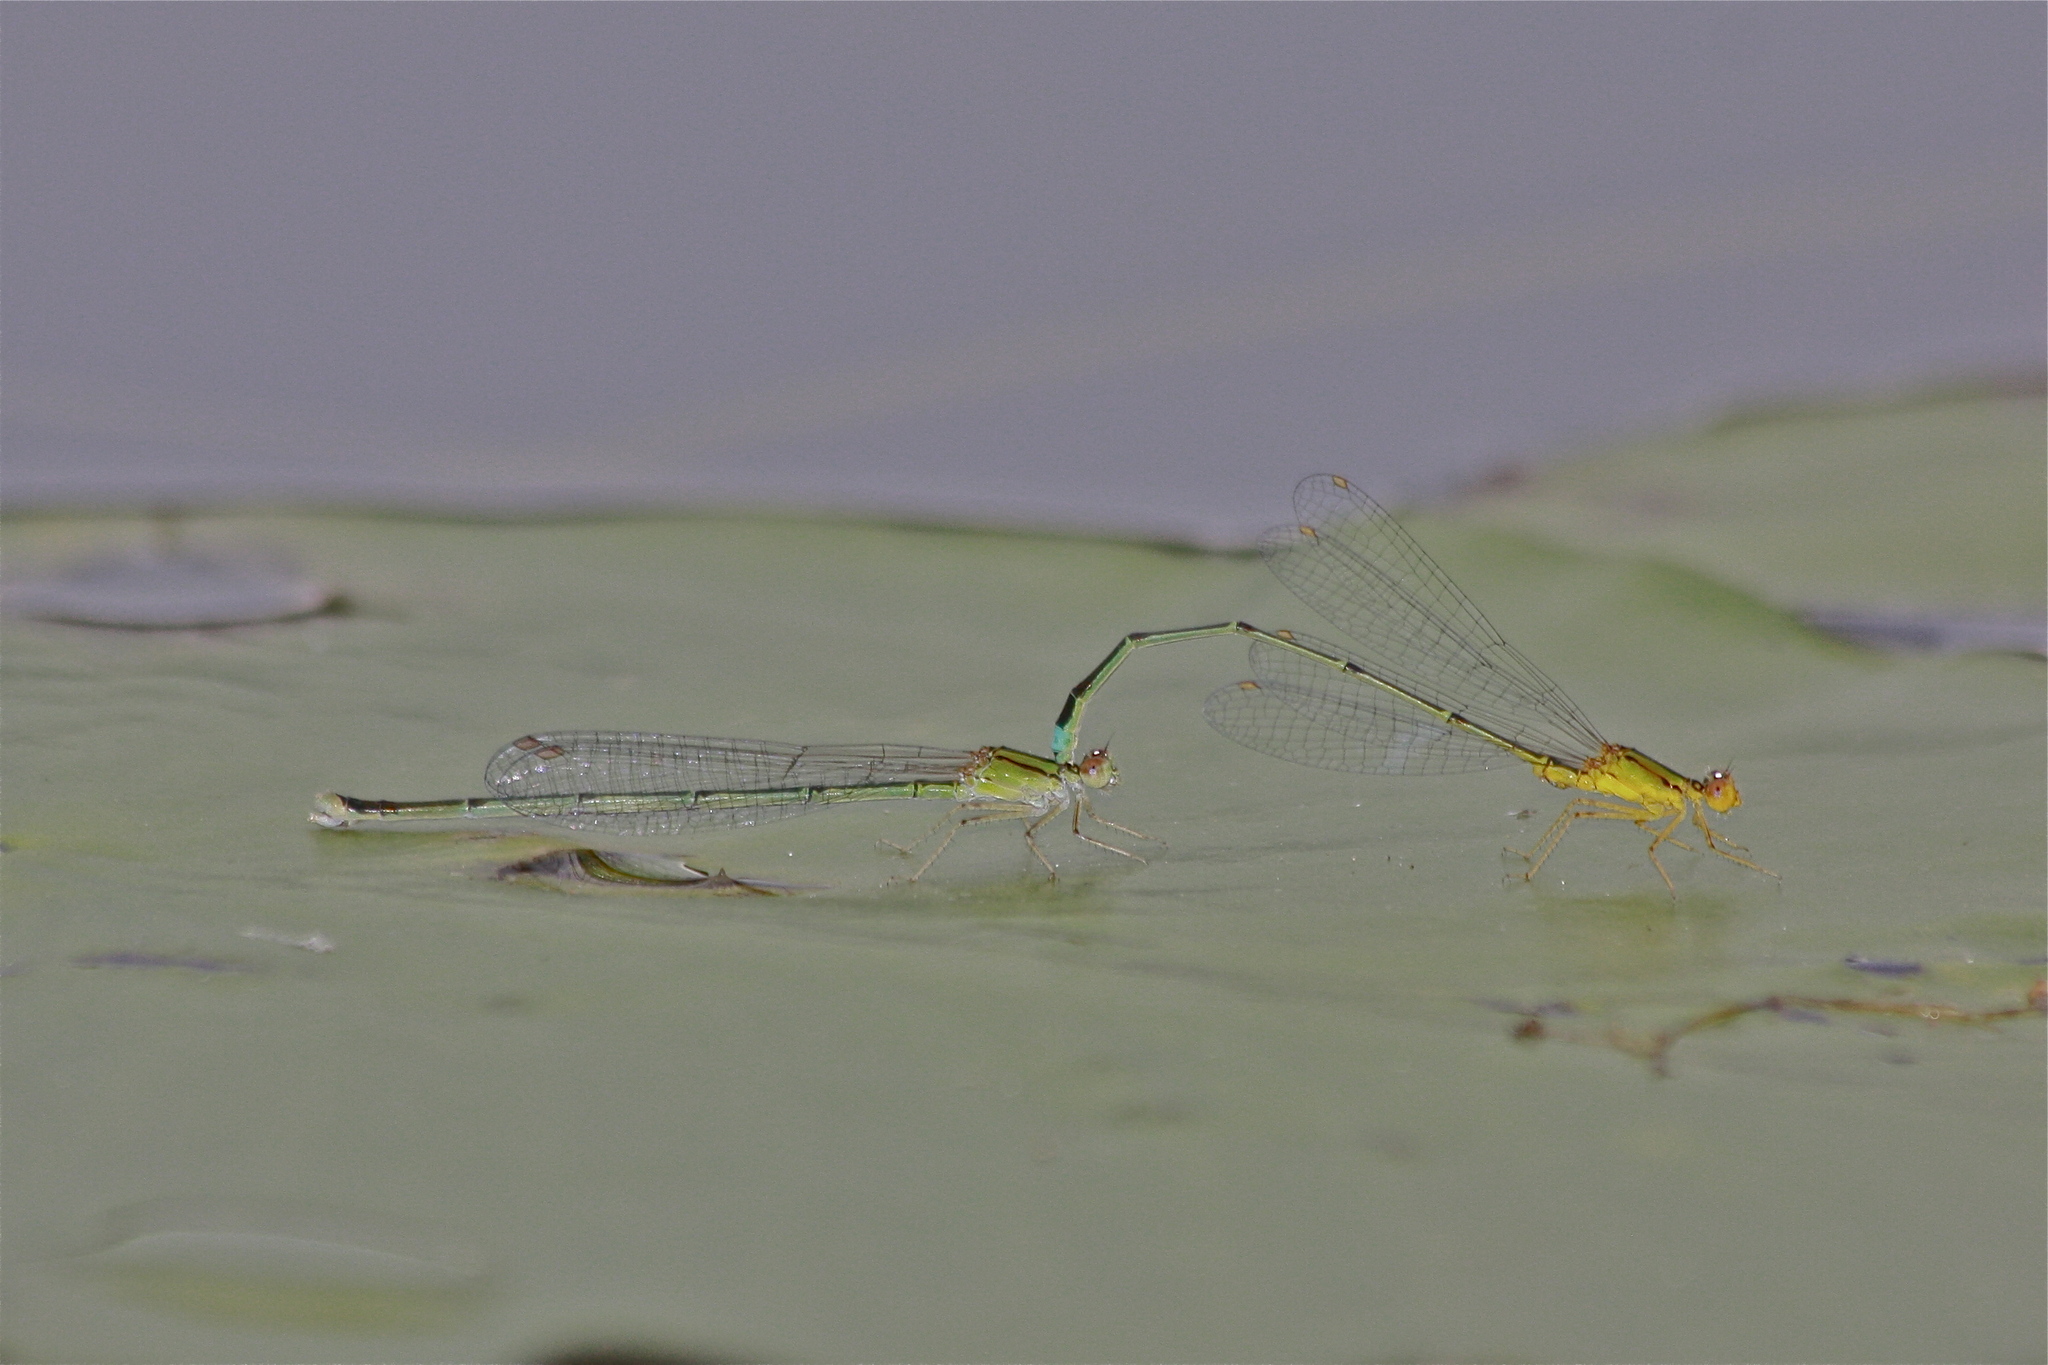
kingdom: Animalia
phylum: Arthropoda
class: Insecta
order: Odonata
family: Coenagrionidae
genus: Enallagma
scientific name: Enallagma vesperum
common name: Vesper bluet
